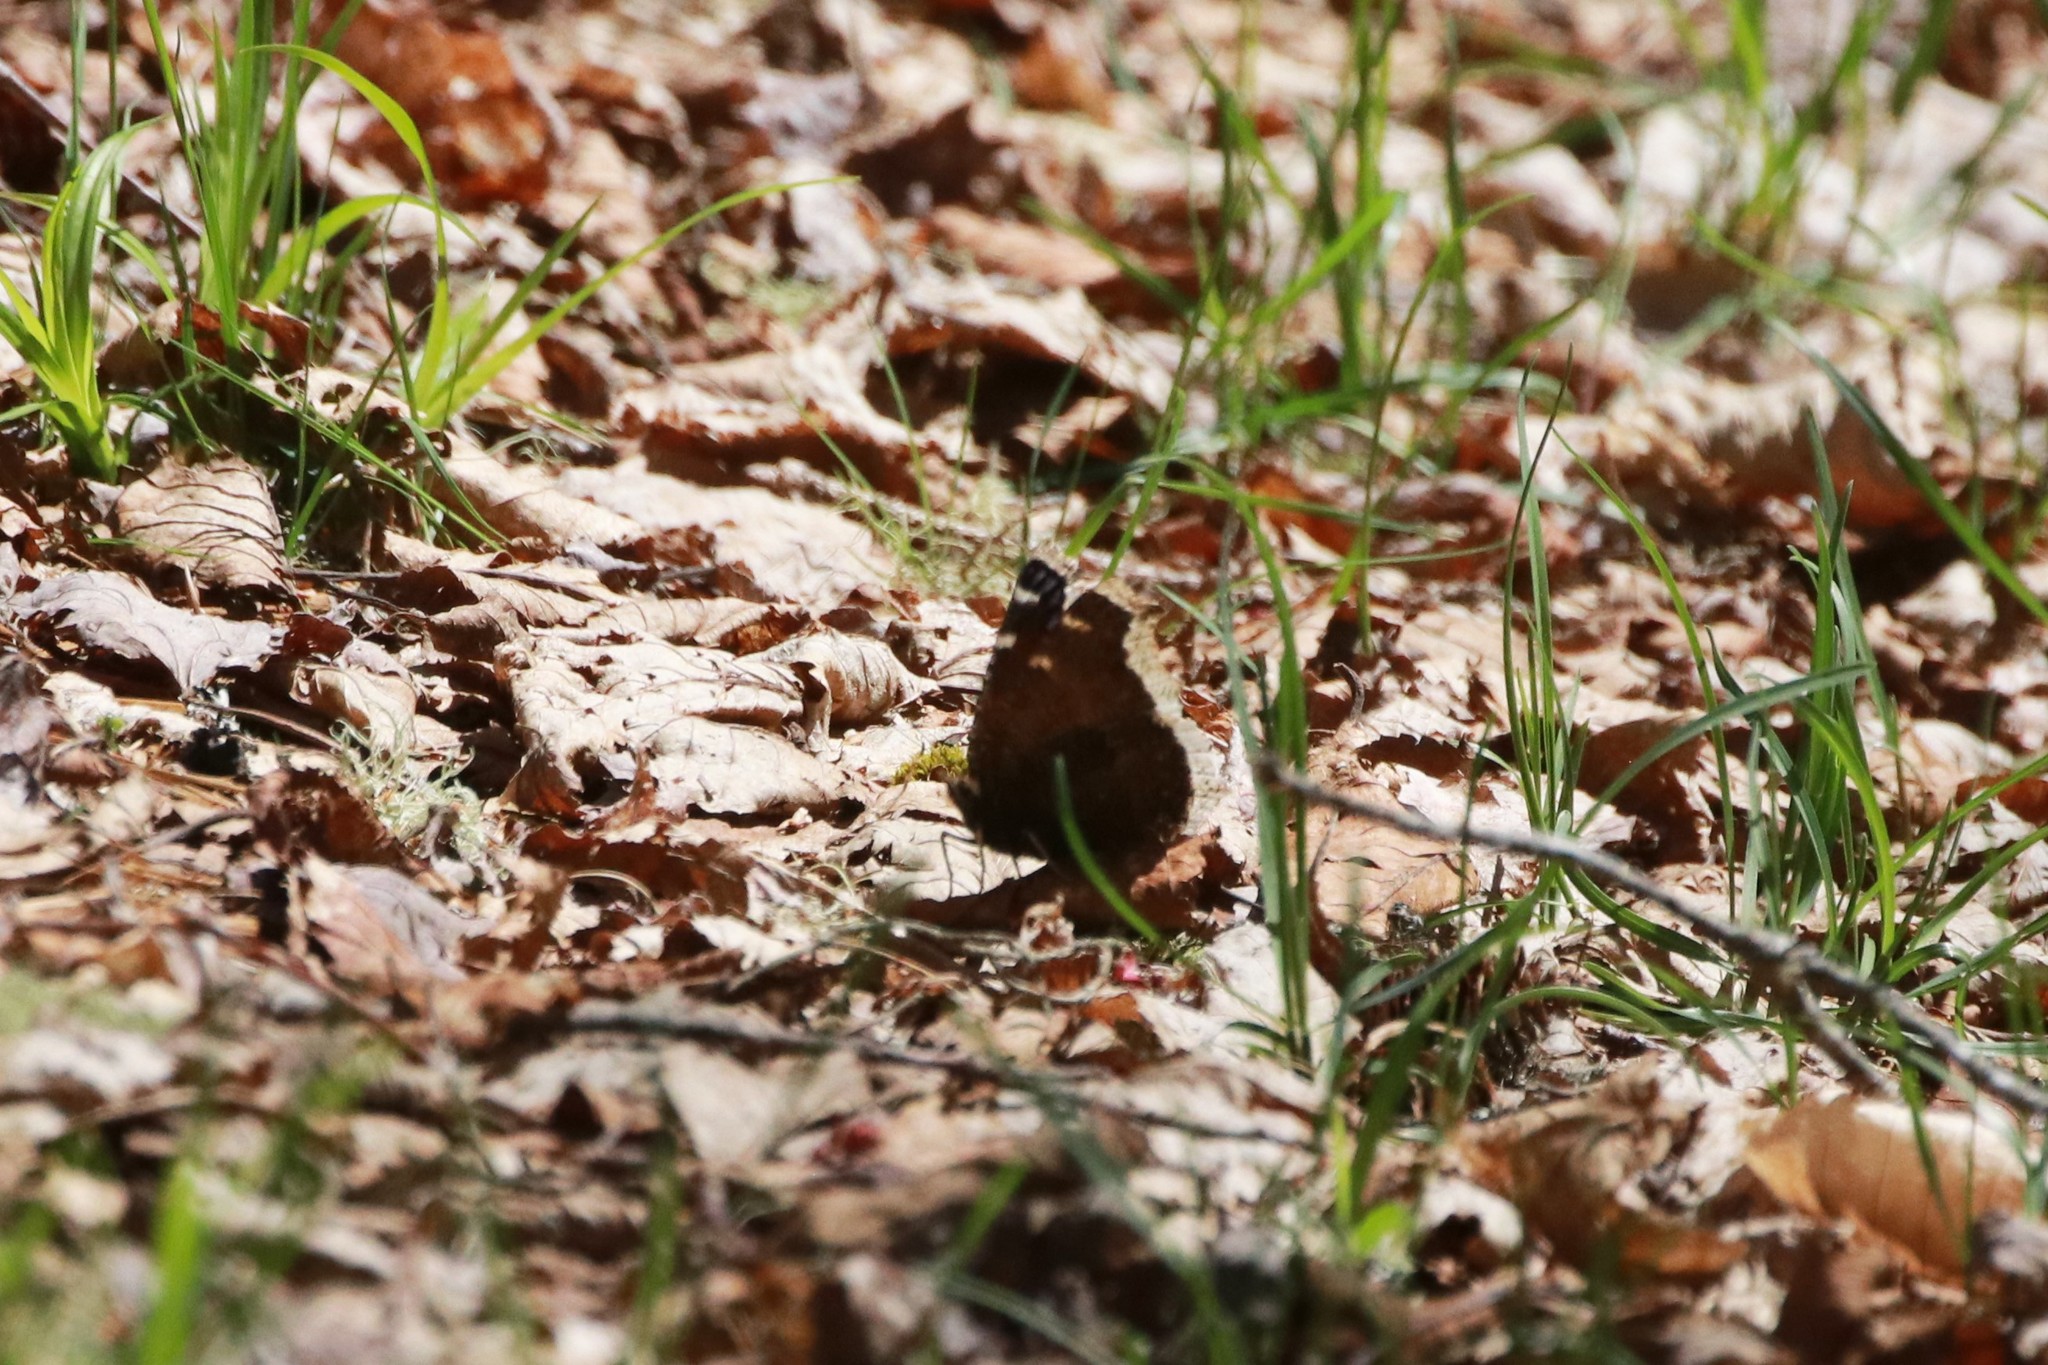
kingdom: Animalia
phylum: Arthropoda
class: Insecta
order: Lepidoptera
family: Nymphalidae
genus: Nymphalis
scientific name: Nymphalis antiopa
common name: Camberwell beauty
